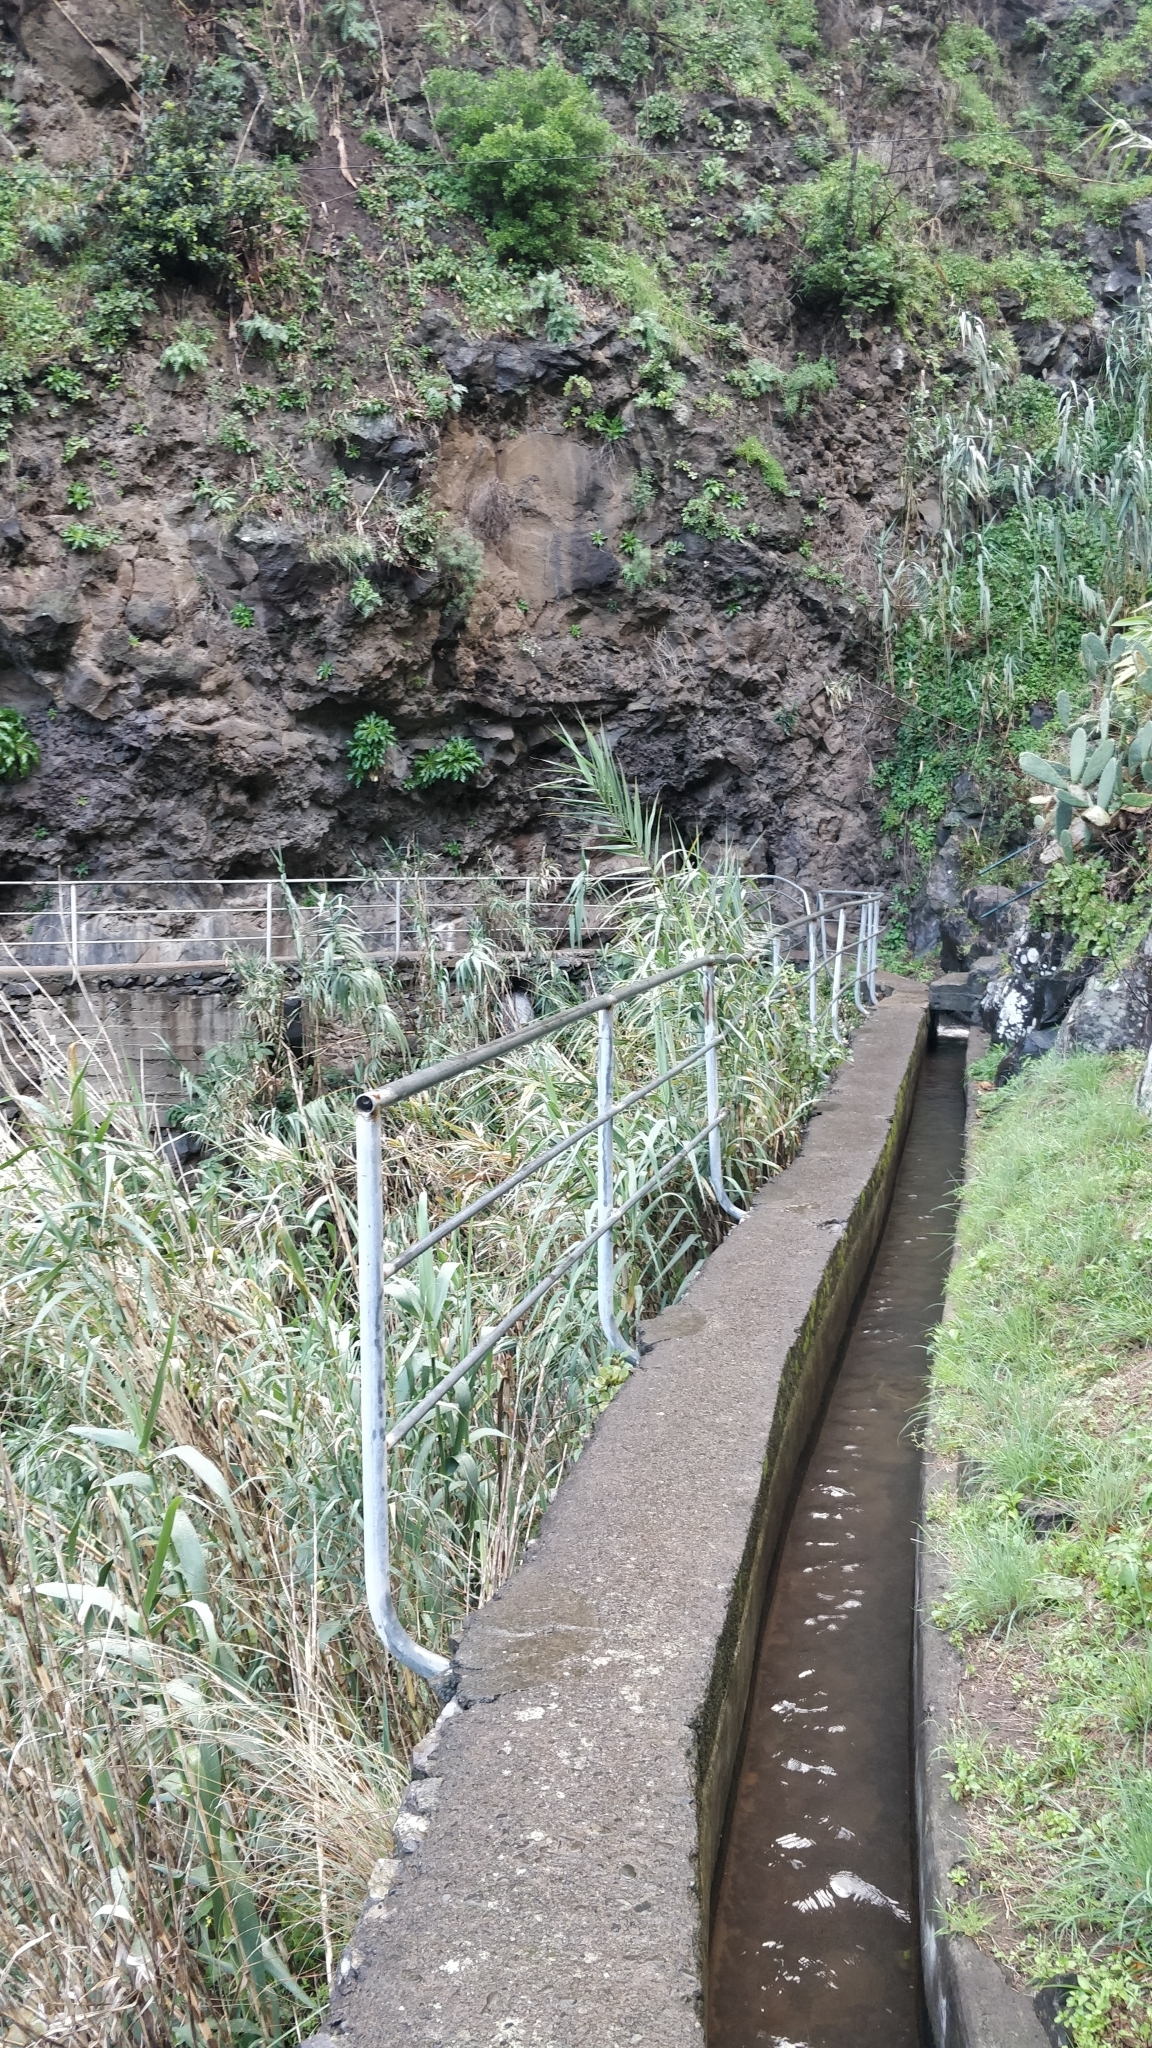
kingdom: Plantae
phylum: Tracheophyta
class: Liliopsida
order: Poales
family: Poaceae
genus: Arundo
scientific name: Arundo donax
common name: Giant reed
